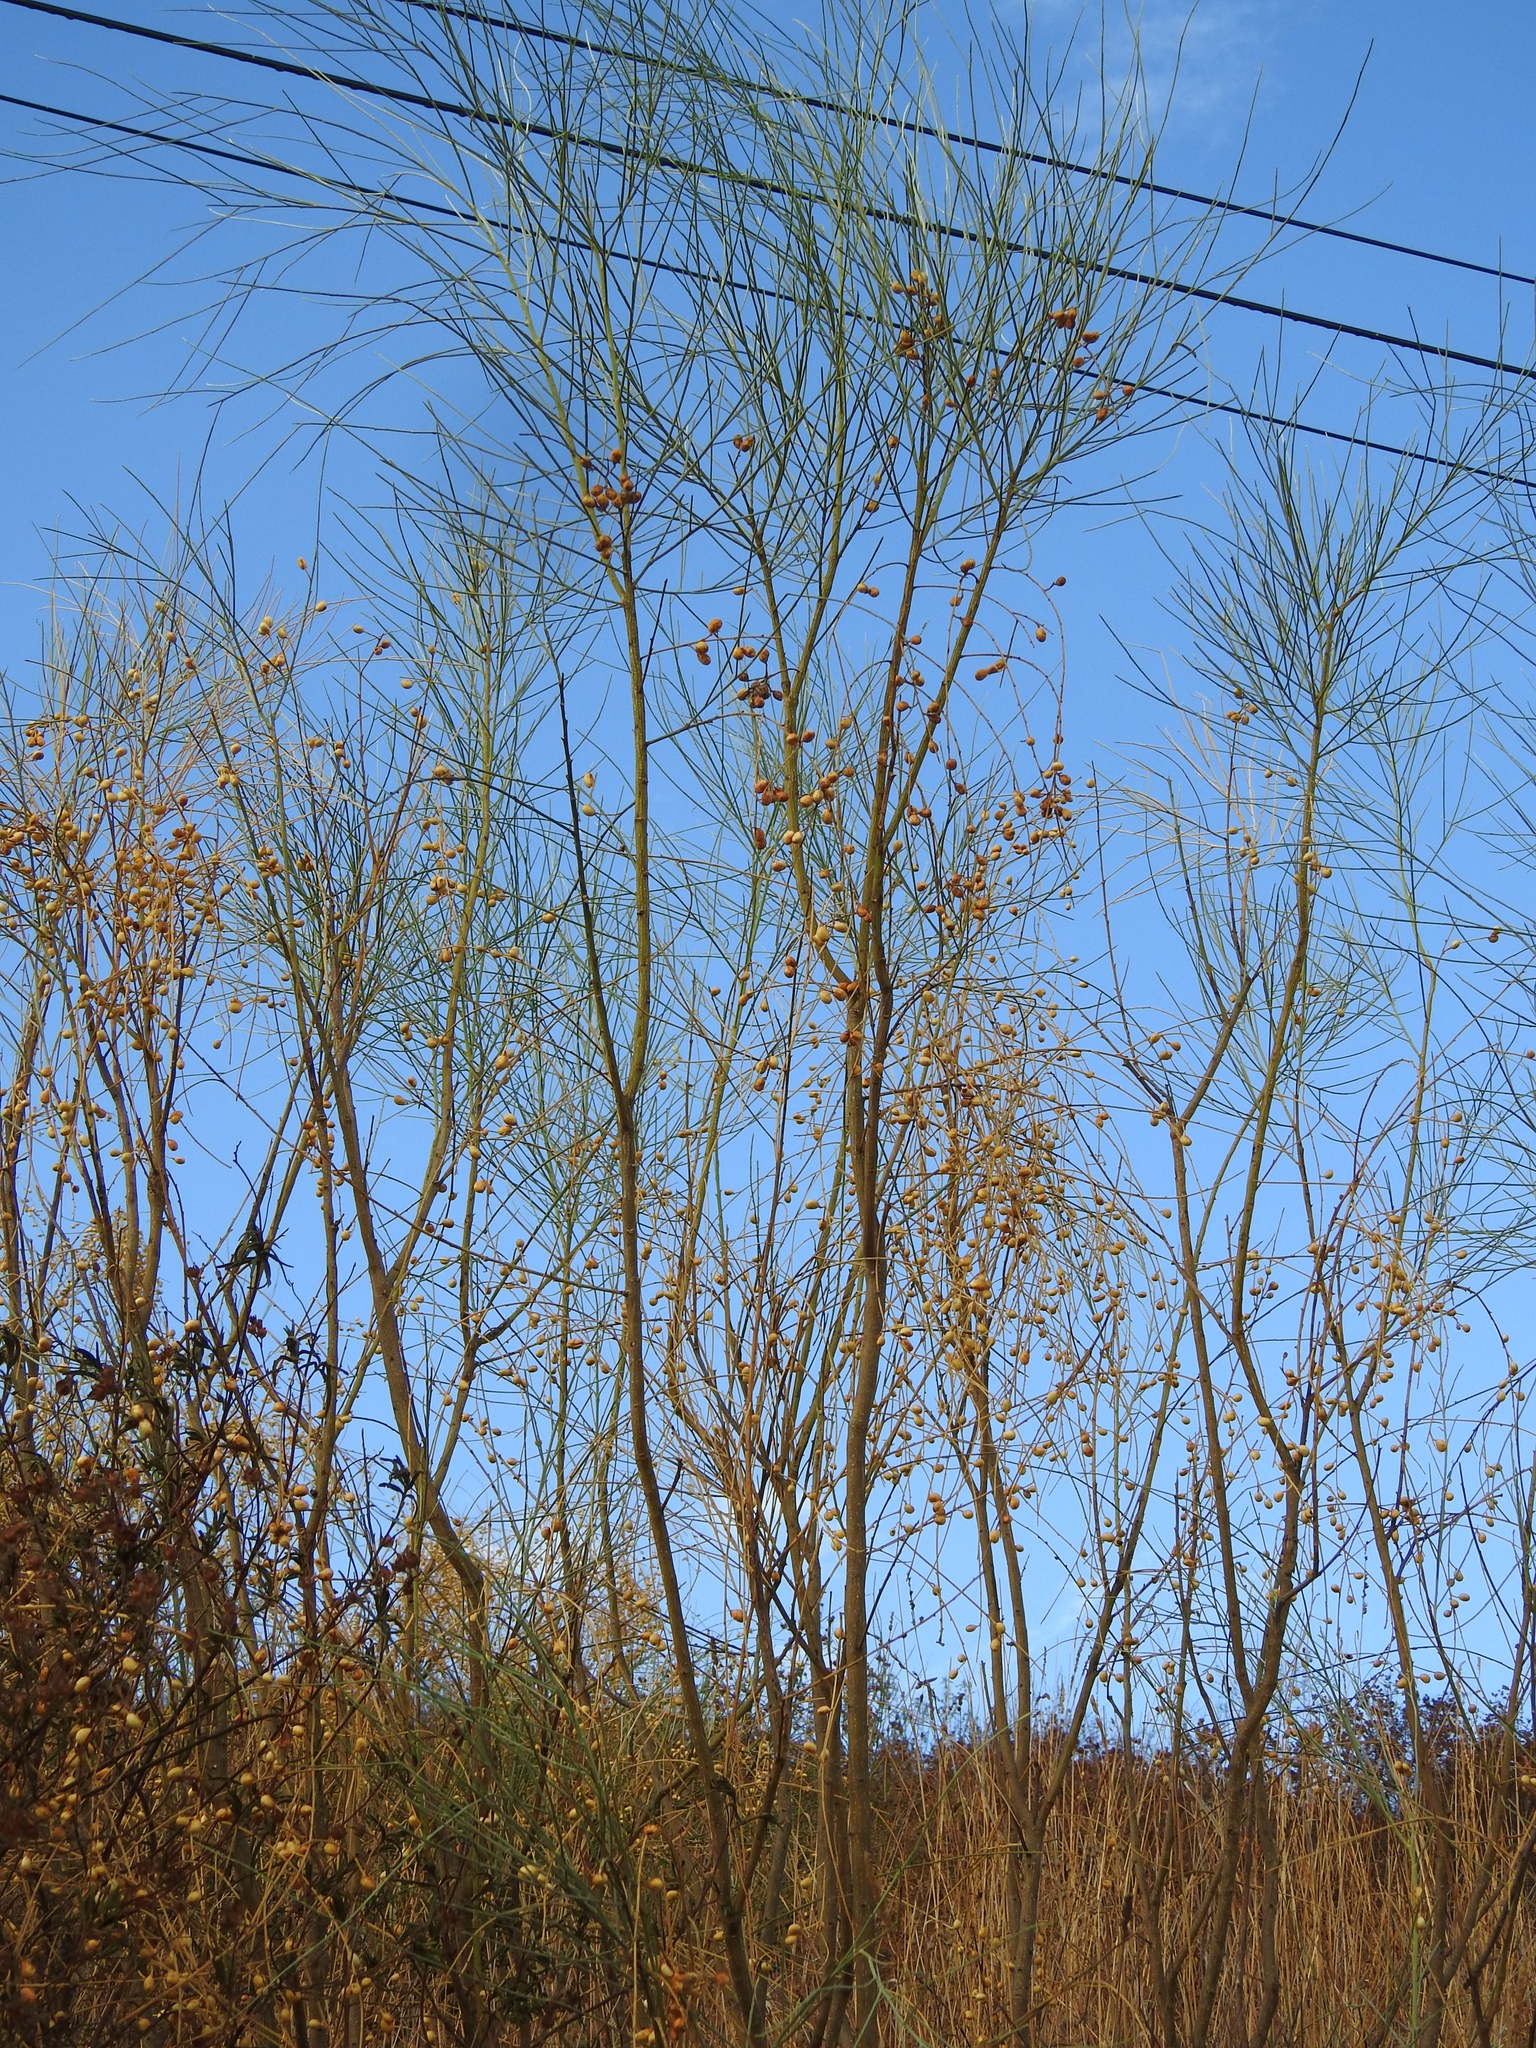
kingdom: Plantae
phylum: Tracheophyta
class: Magnoliopsida
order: Fabales
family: Fabaceae
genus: Retama
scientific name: Retama sphaerocarpa
